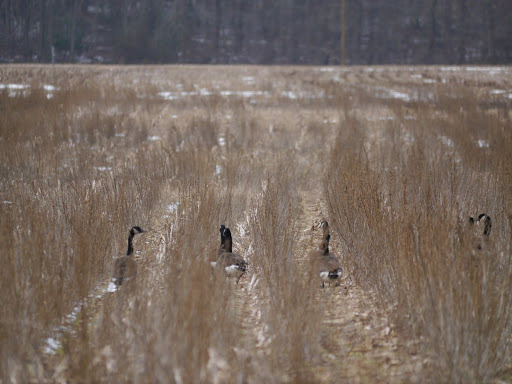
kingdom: Animalia
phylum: Chordata
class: Aves
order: Anseriformes
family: Anatidae
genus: Branta
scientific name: Branta canadensis
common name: Canada goose
